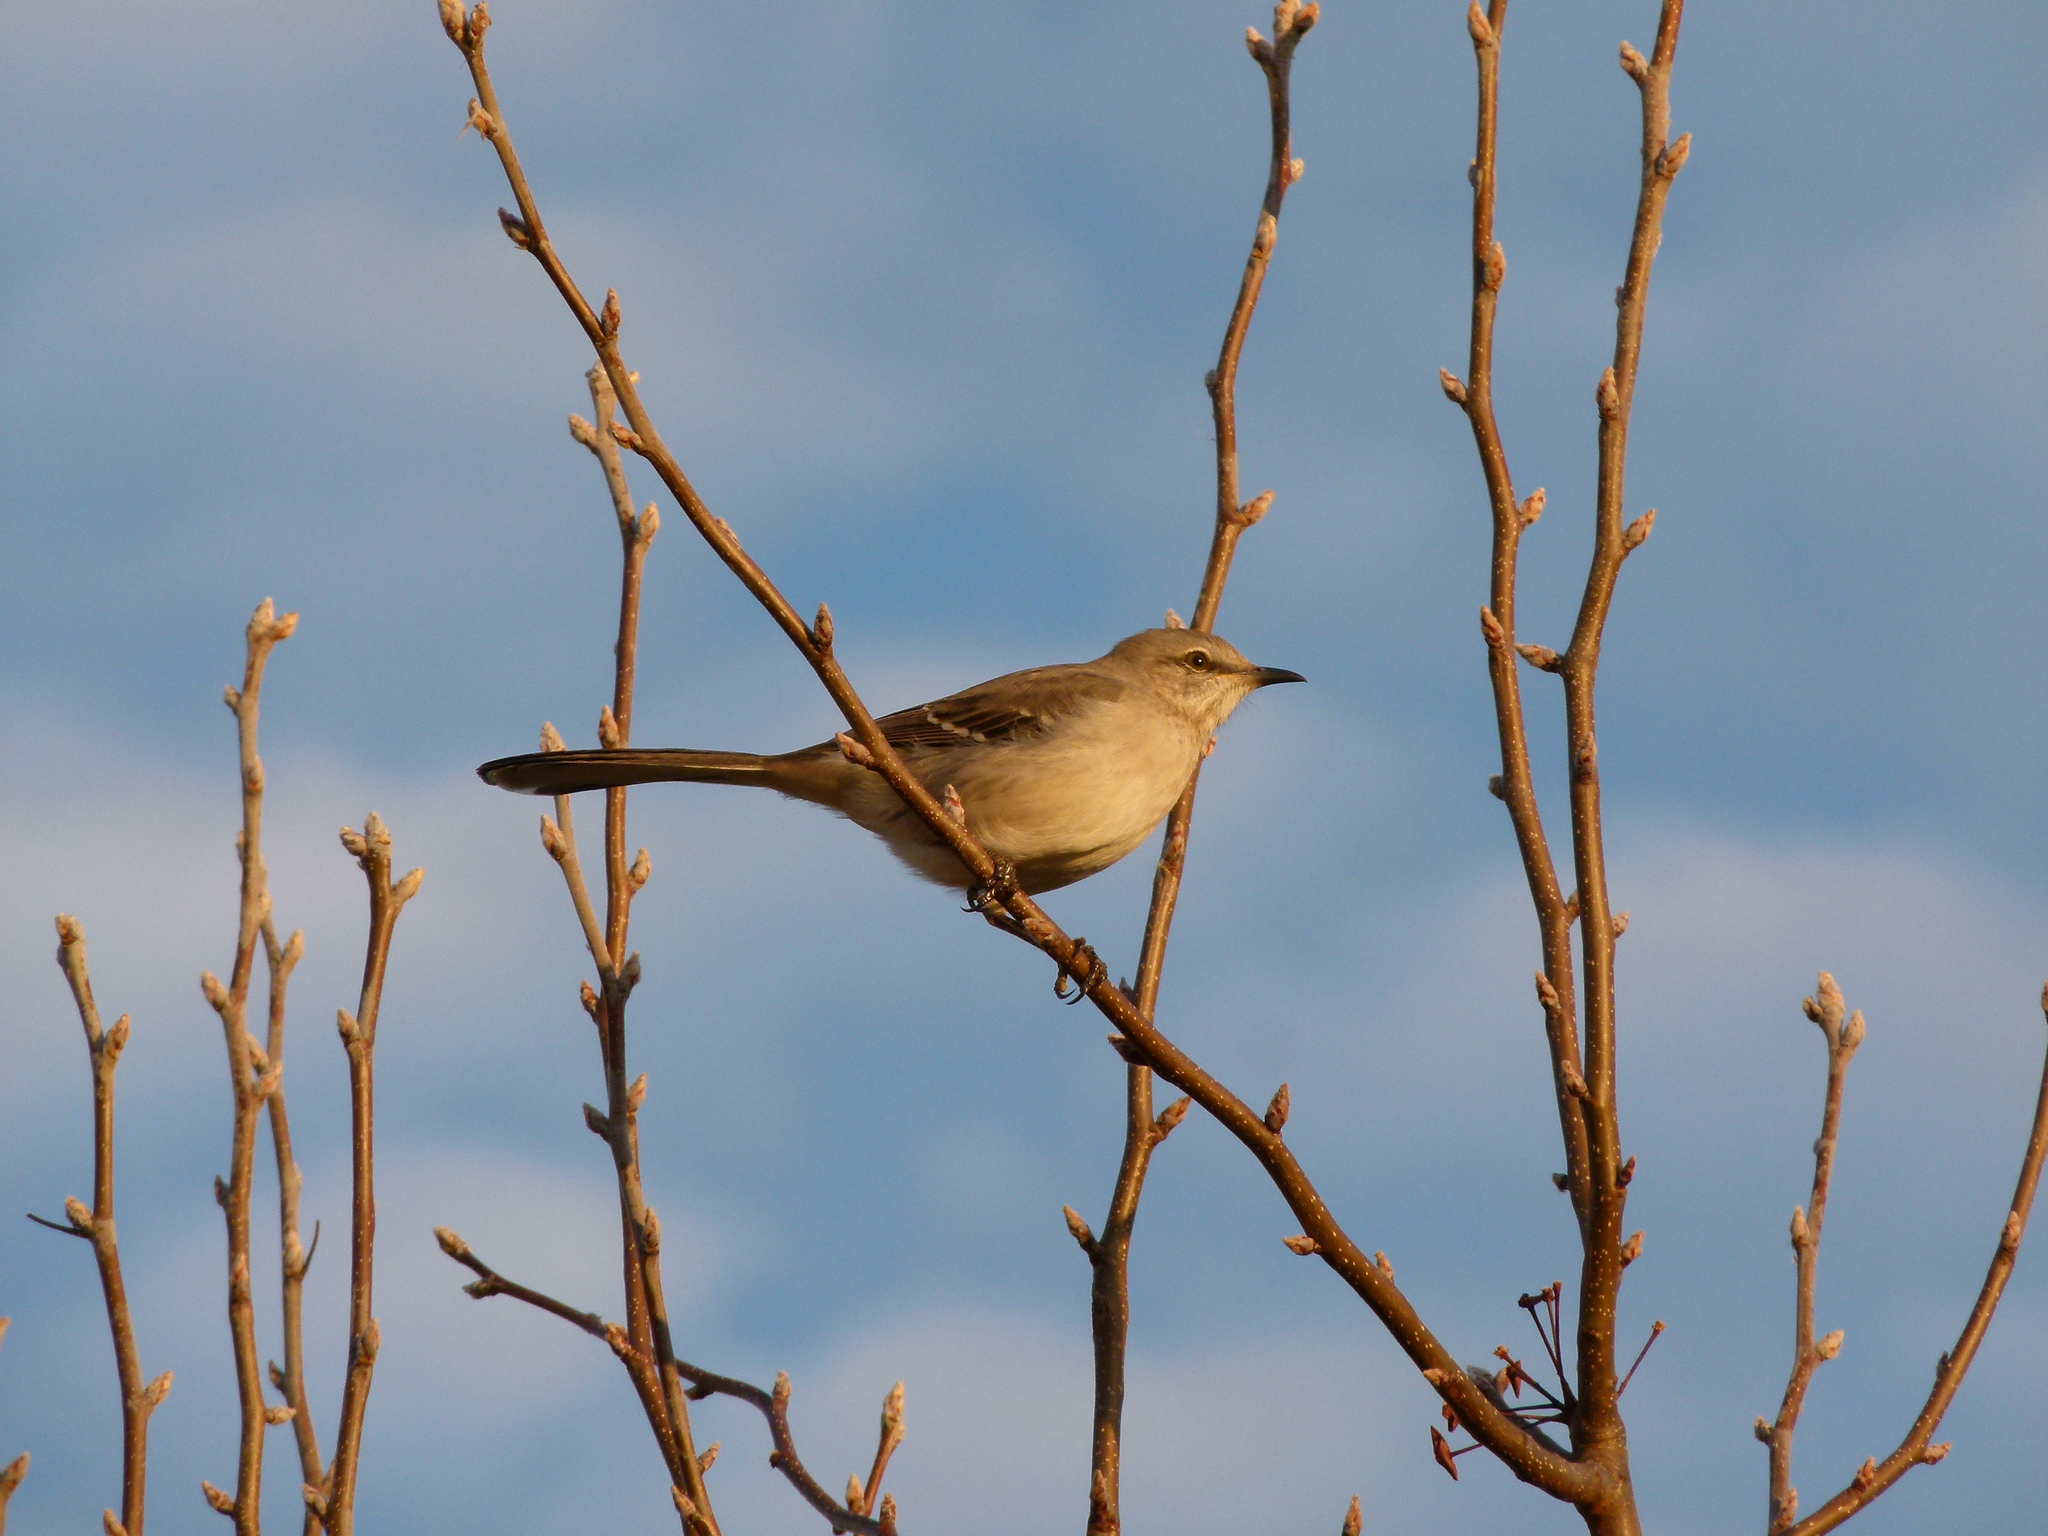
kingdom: Animalia
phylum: Chordata
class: Aves
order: Passeriformes
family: Mimidae
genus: Mimus
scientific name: Mimus polyglottos
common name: Northern mockingbird
